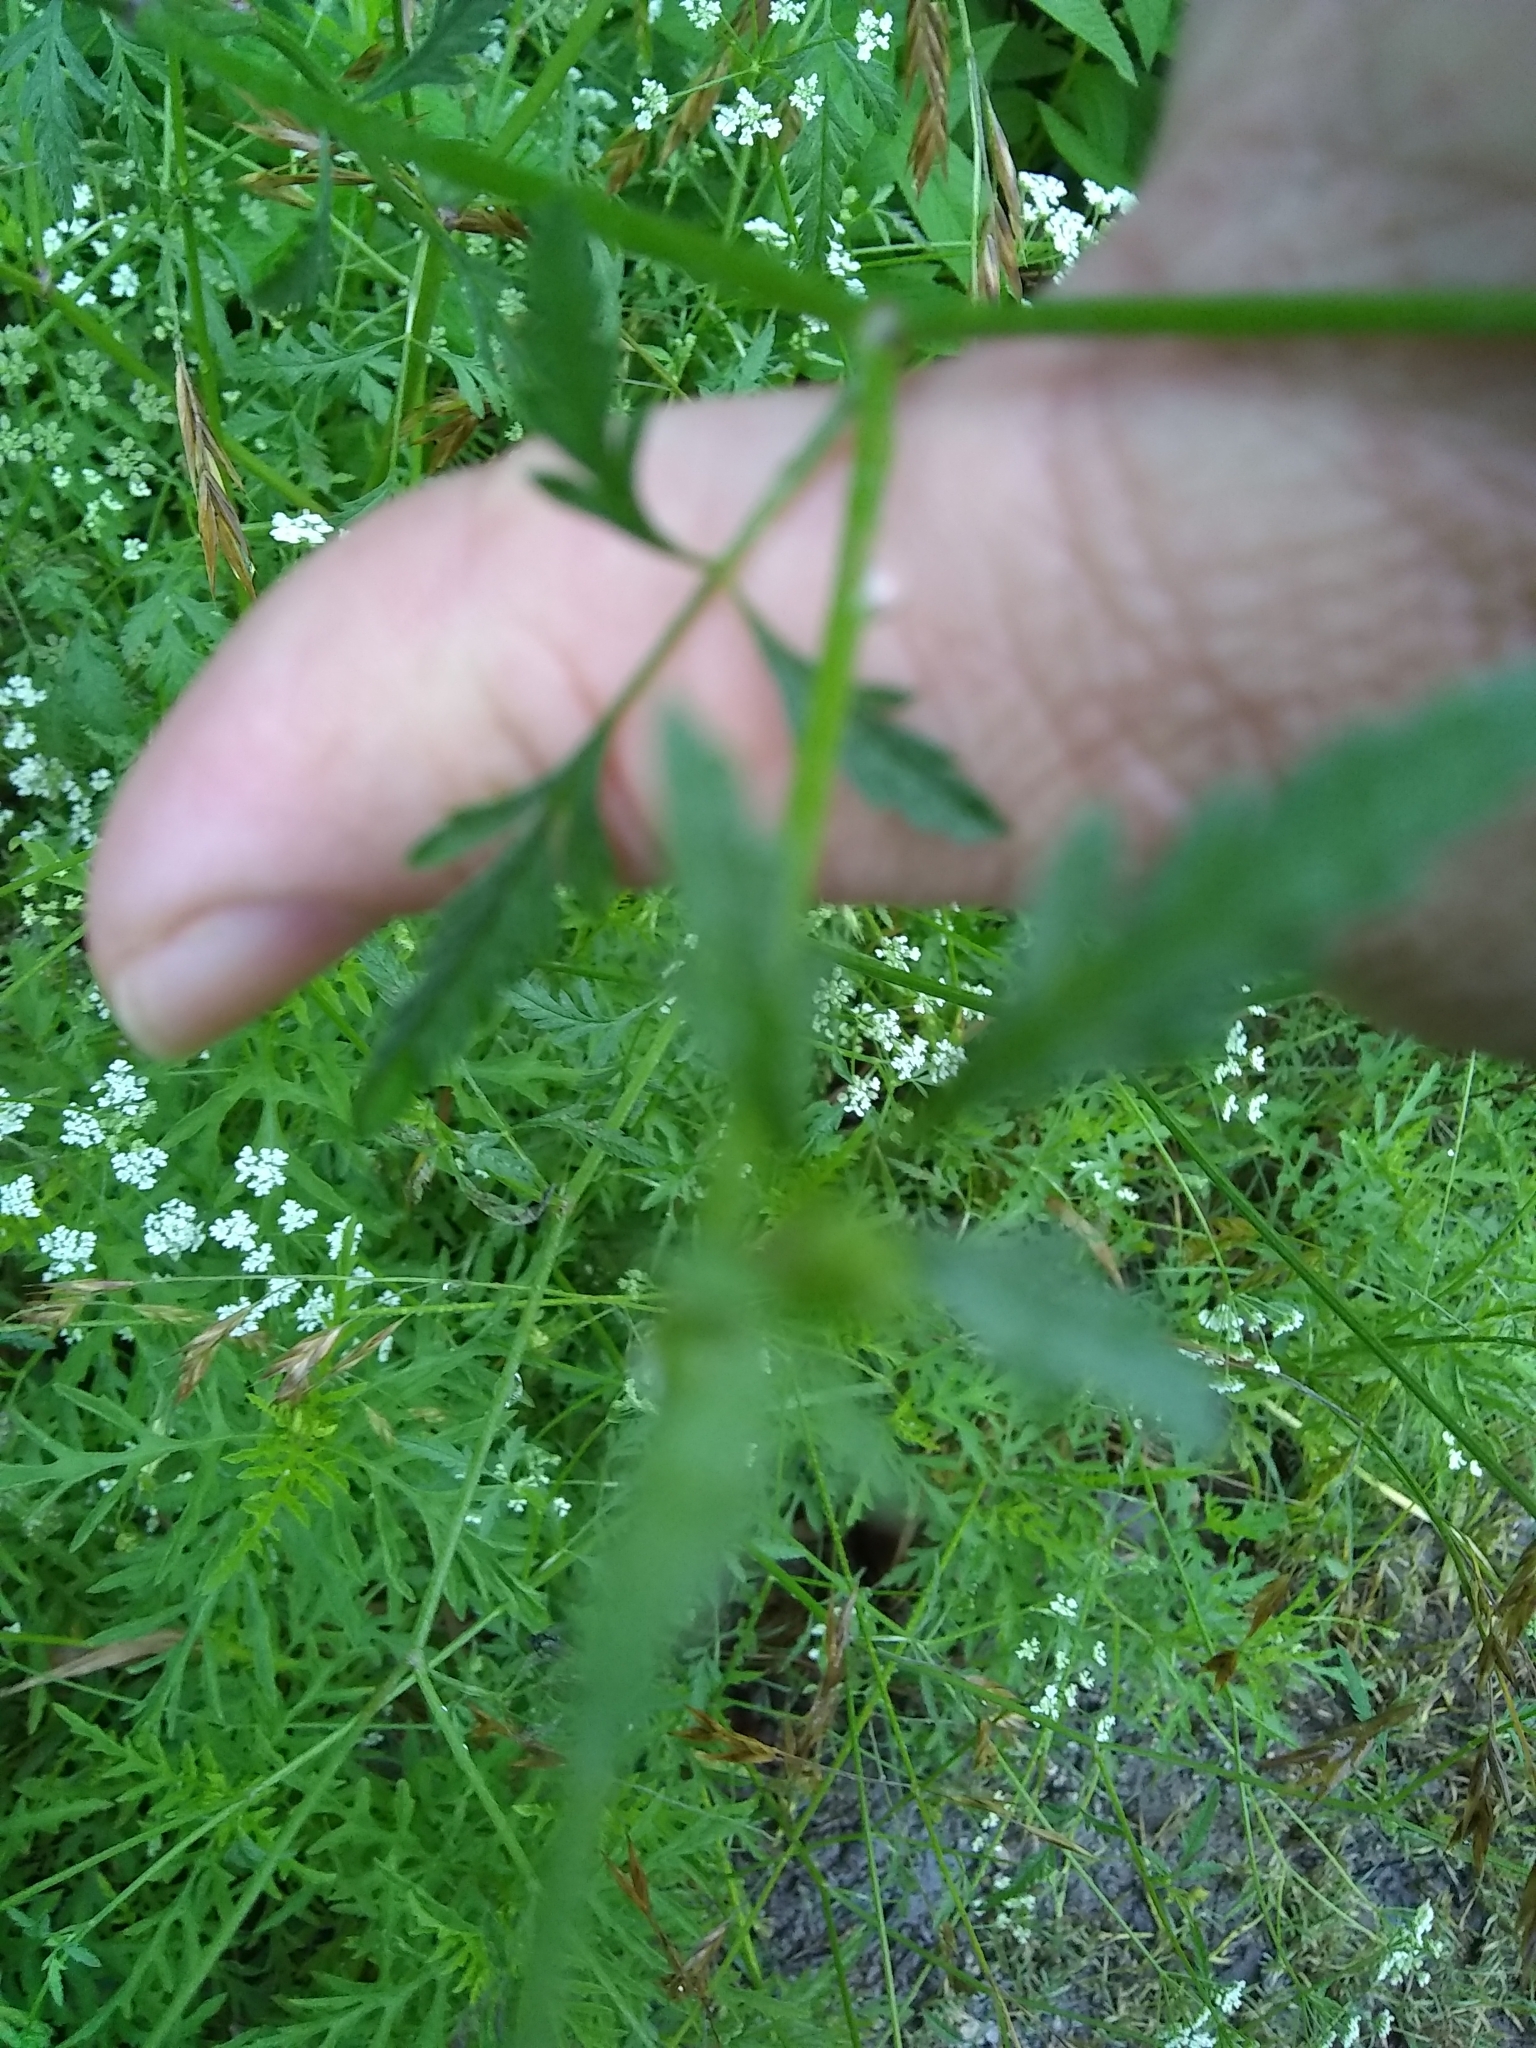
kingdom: Plantae
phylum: Tracheophyta
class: Magnoliopsida
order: Apiales
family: Apiaceae
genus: Torilis
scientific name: Torilis arvensis
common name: Spreading hedge-parsley
